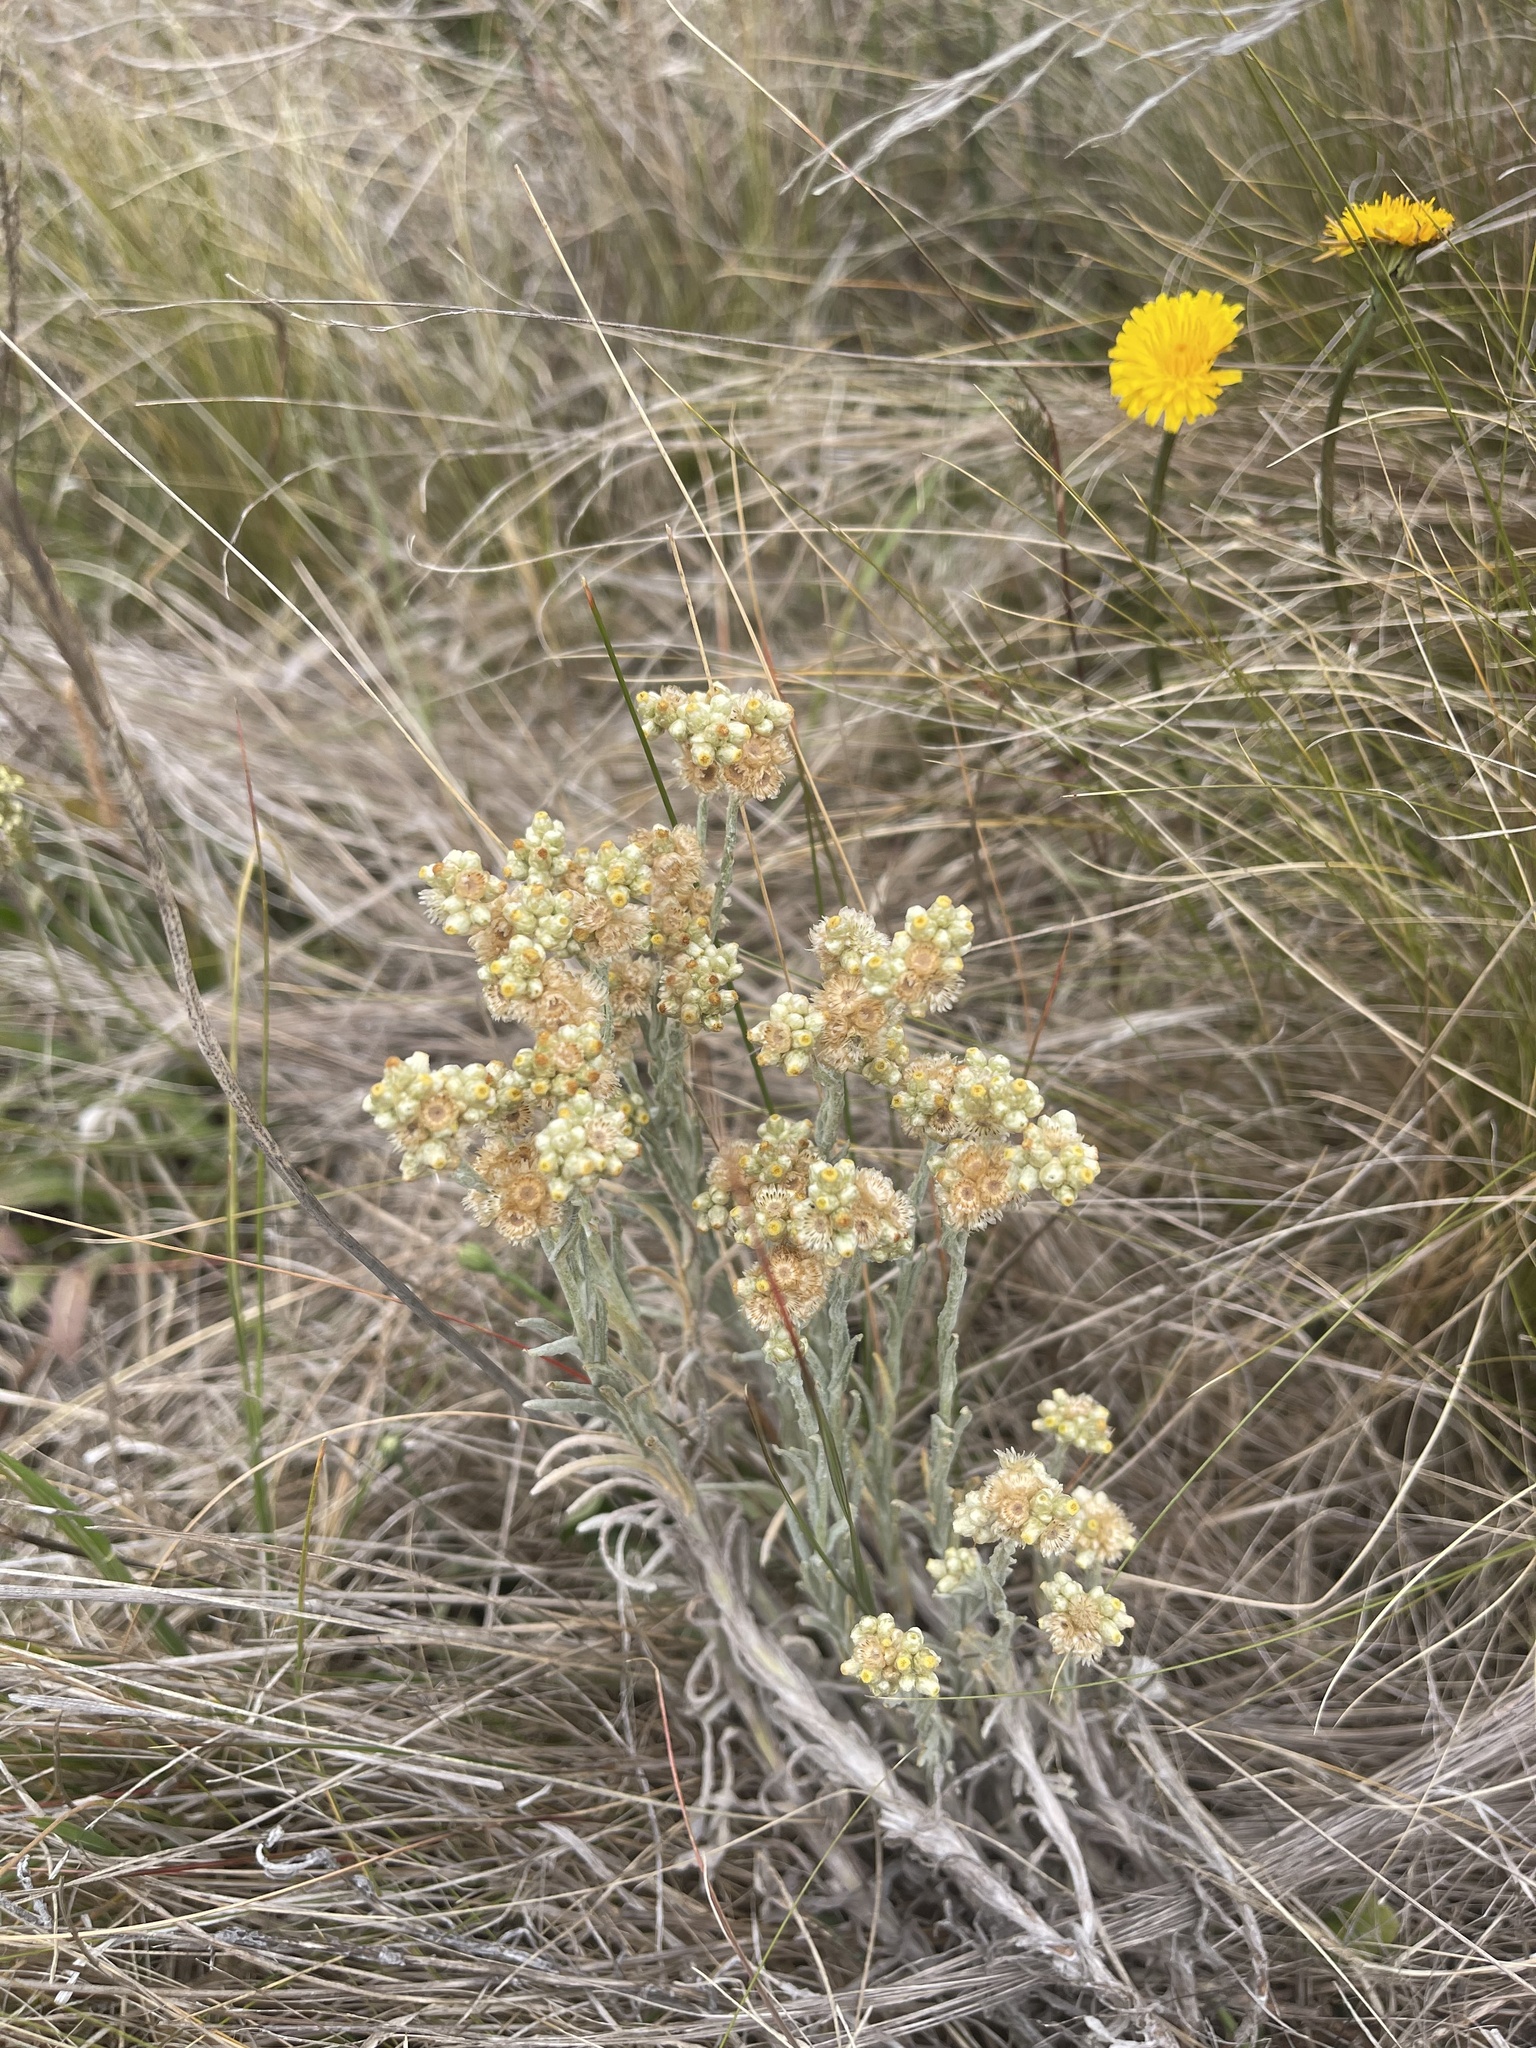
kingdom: Plantae
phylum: Tracheophyta
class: Magnoliopsida
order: Asterales
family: Asteraceae
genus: Helichrysum
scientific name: Helichrysum luteoalbum
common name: Daisy
